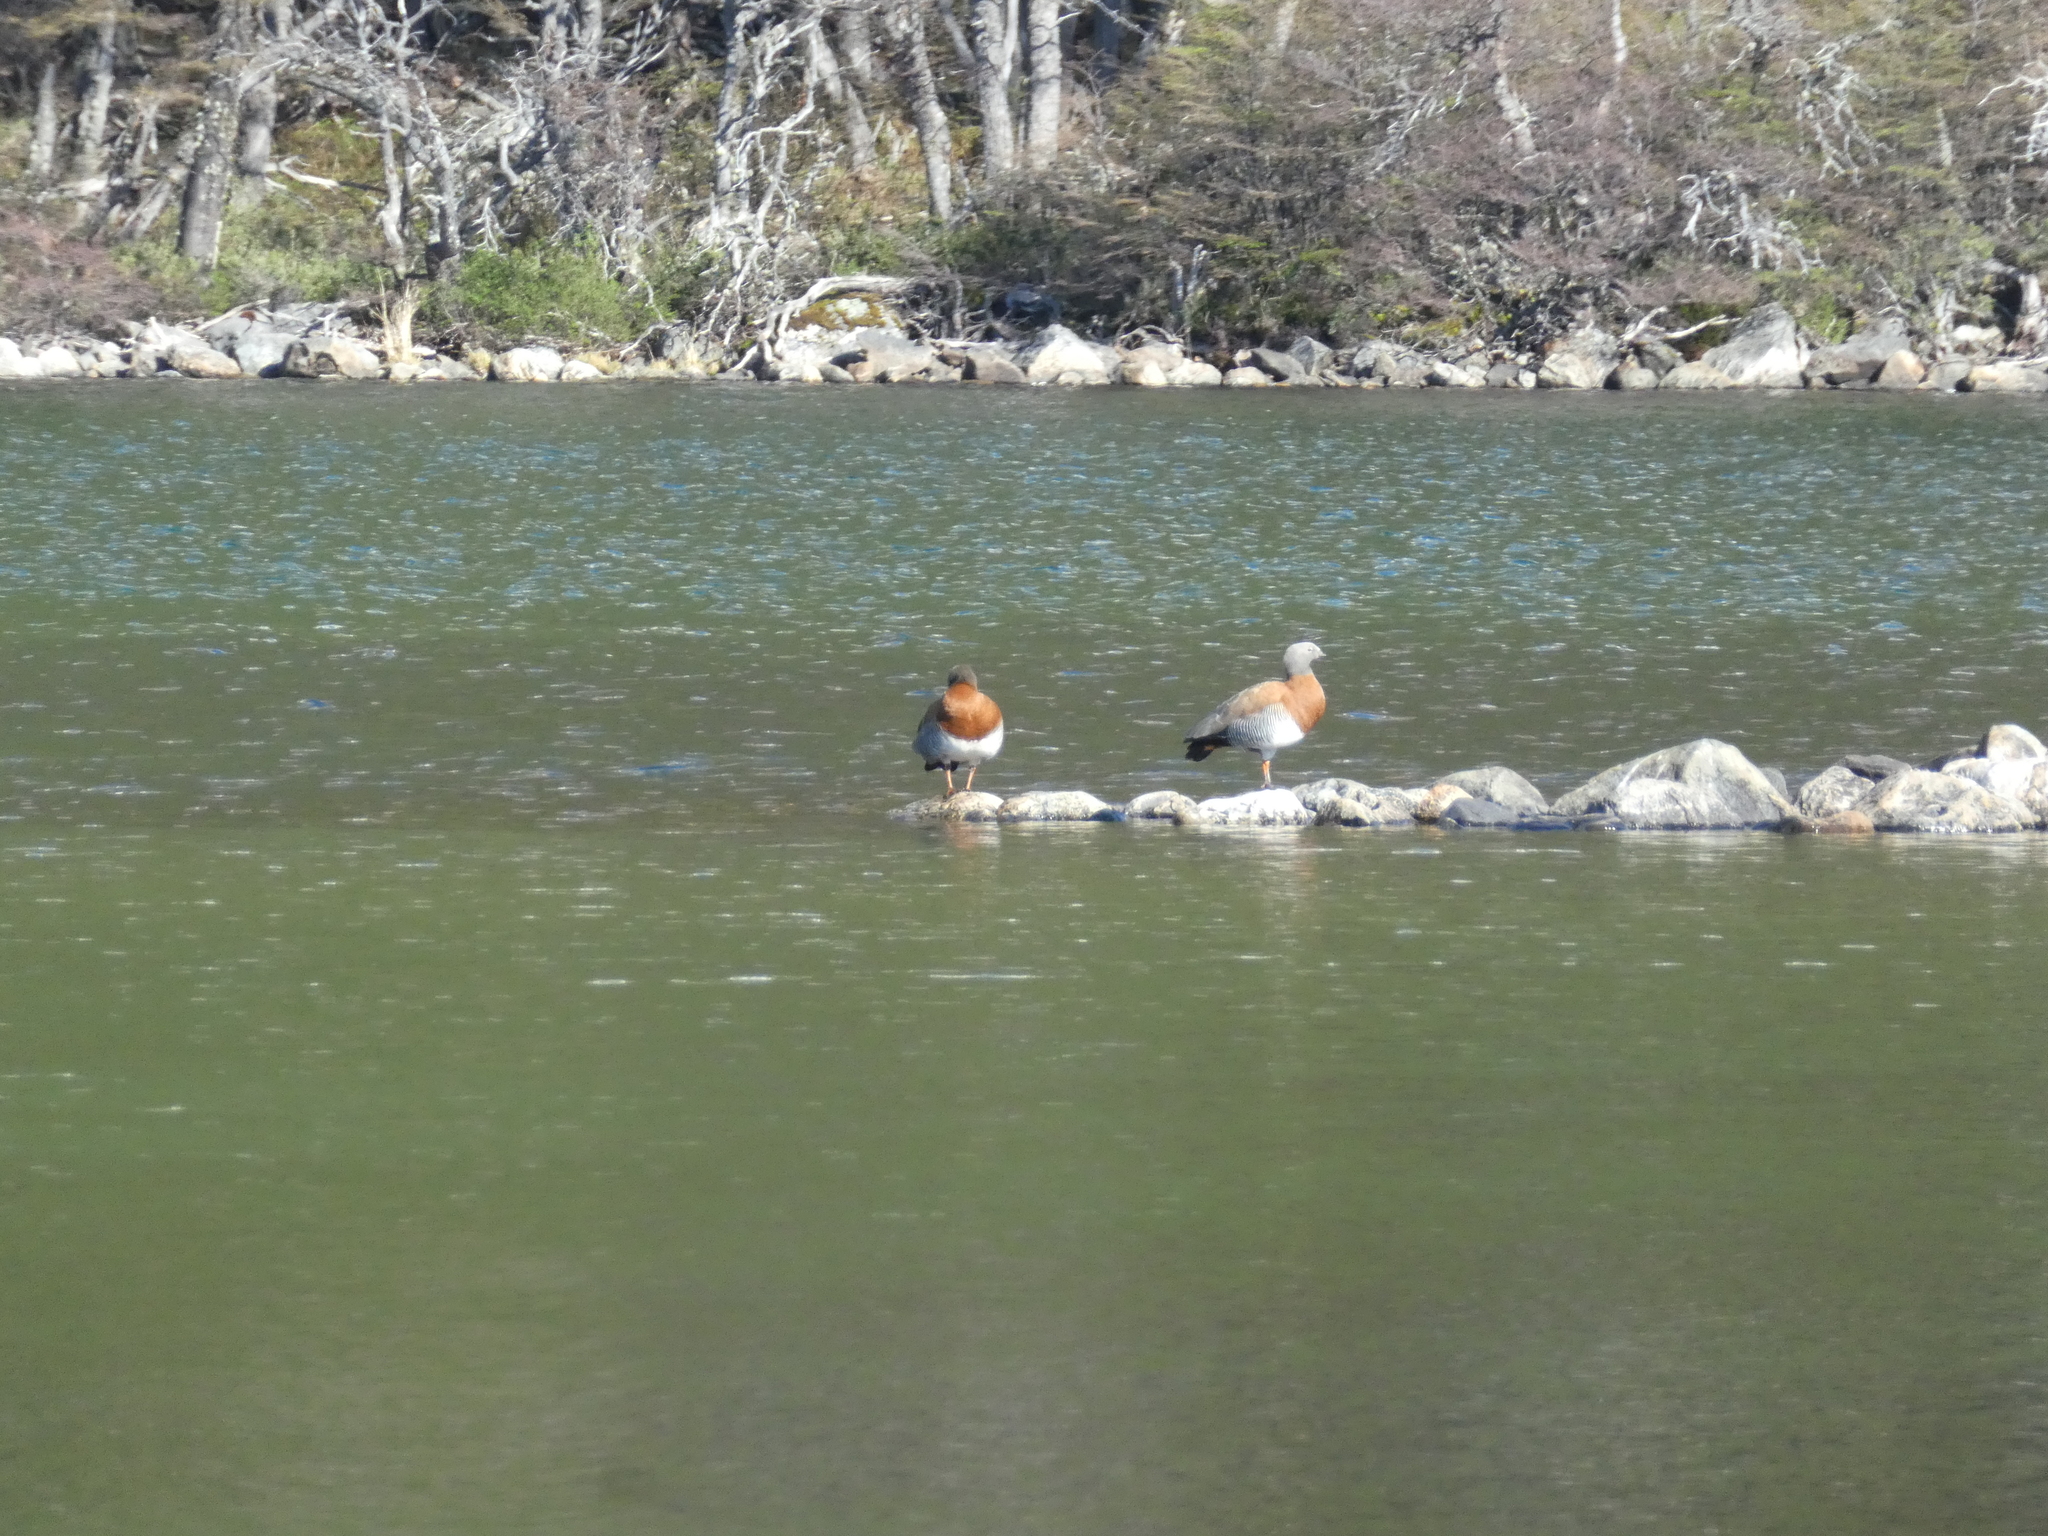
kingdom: Animalia
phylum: Chordata
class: Aves
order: Anseriformes
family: Anatidae
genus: Chloephaga
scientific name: Chloephaga poliocephala
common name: Ashy-headed goose
